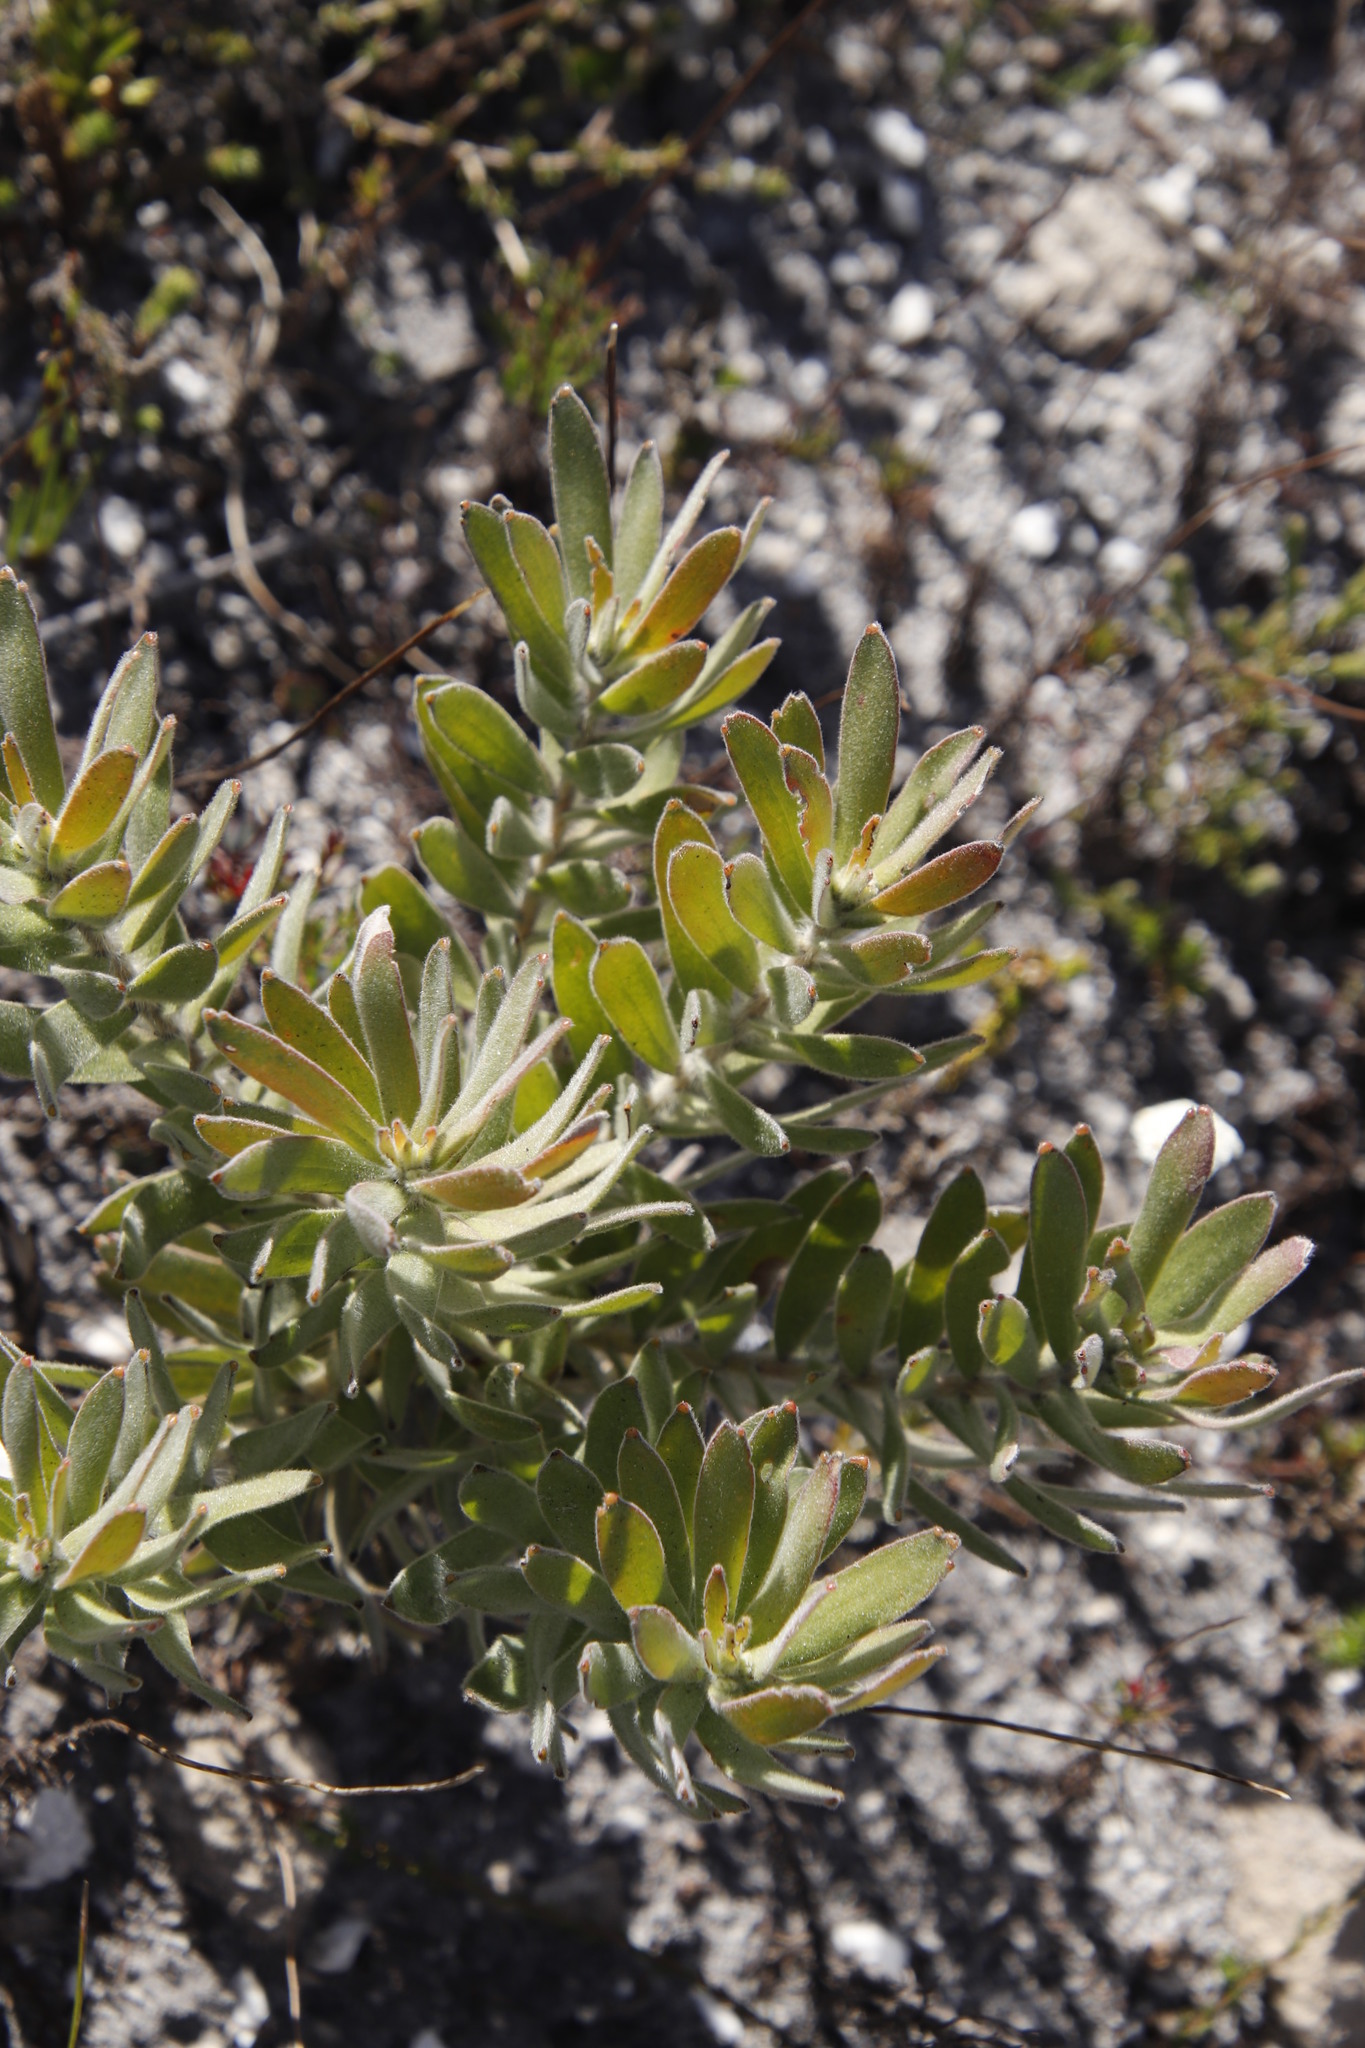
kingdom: Plantae
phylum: Tracheophyta
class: Magnoliopsida
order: Proteales
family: Proteaceae
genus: Leucospermum
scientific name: Leucospermum oleifolium
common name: Matches
